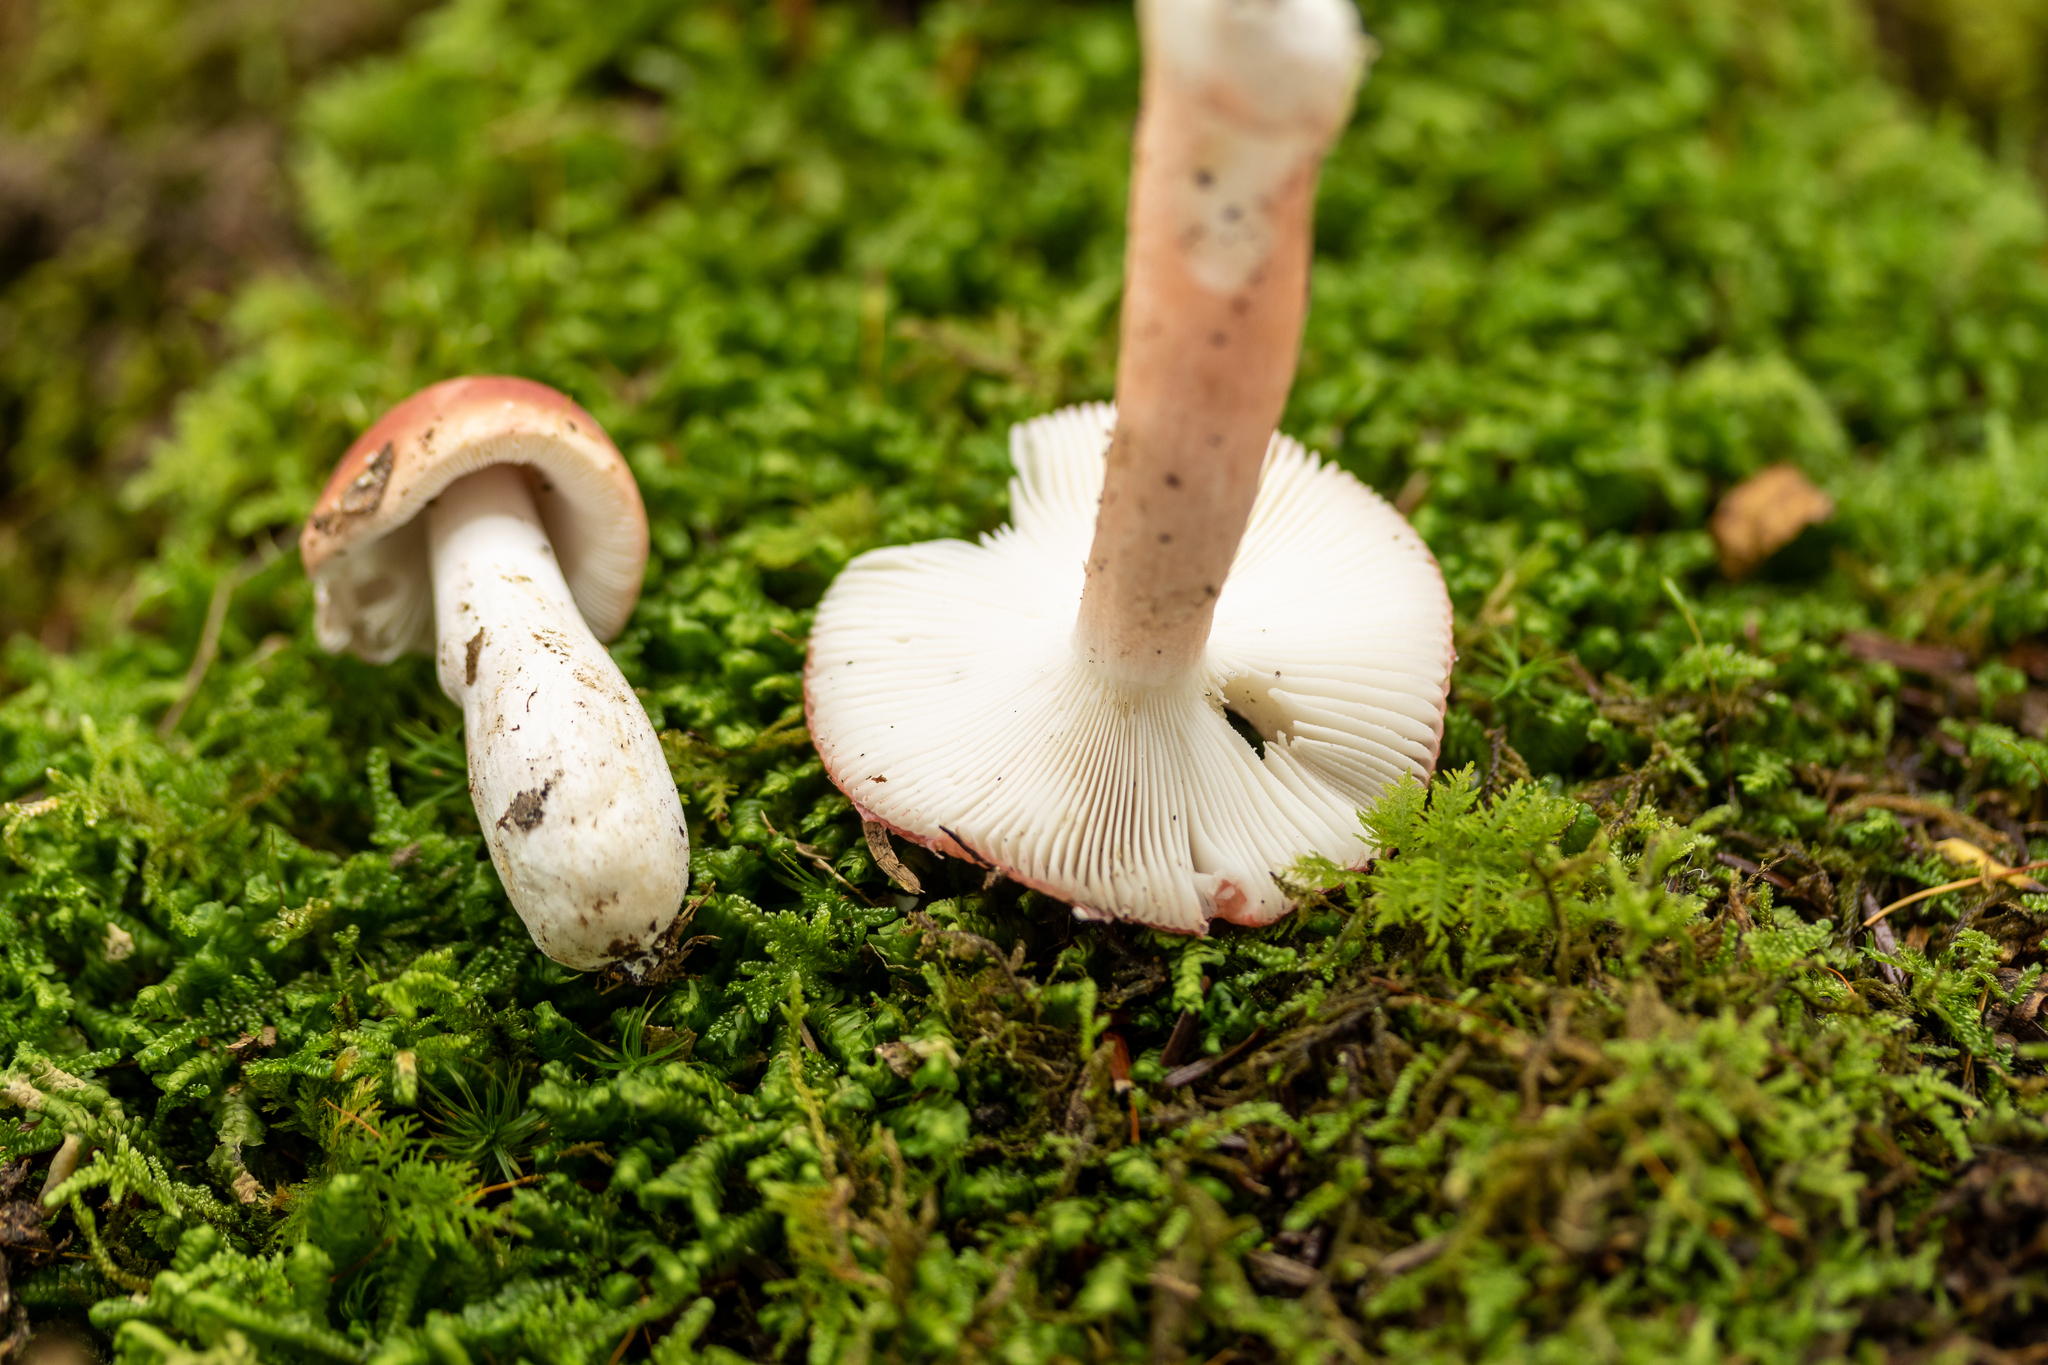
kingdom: Fungi
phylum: Basidiomycota
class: Agaricomycetes
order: Russulales
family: Russulaceae
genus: Russula
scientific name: Russula peckii
